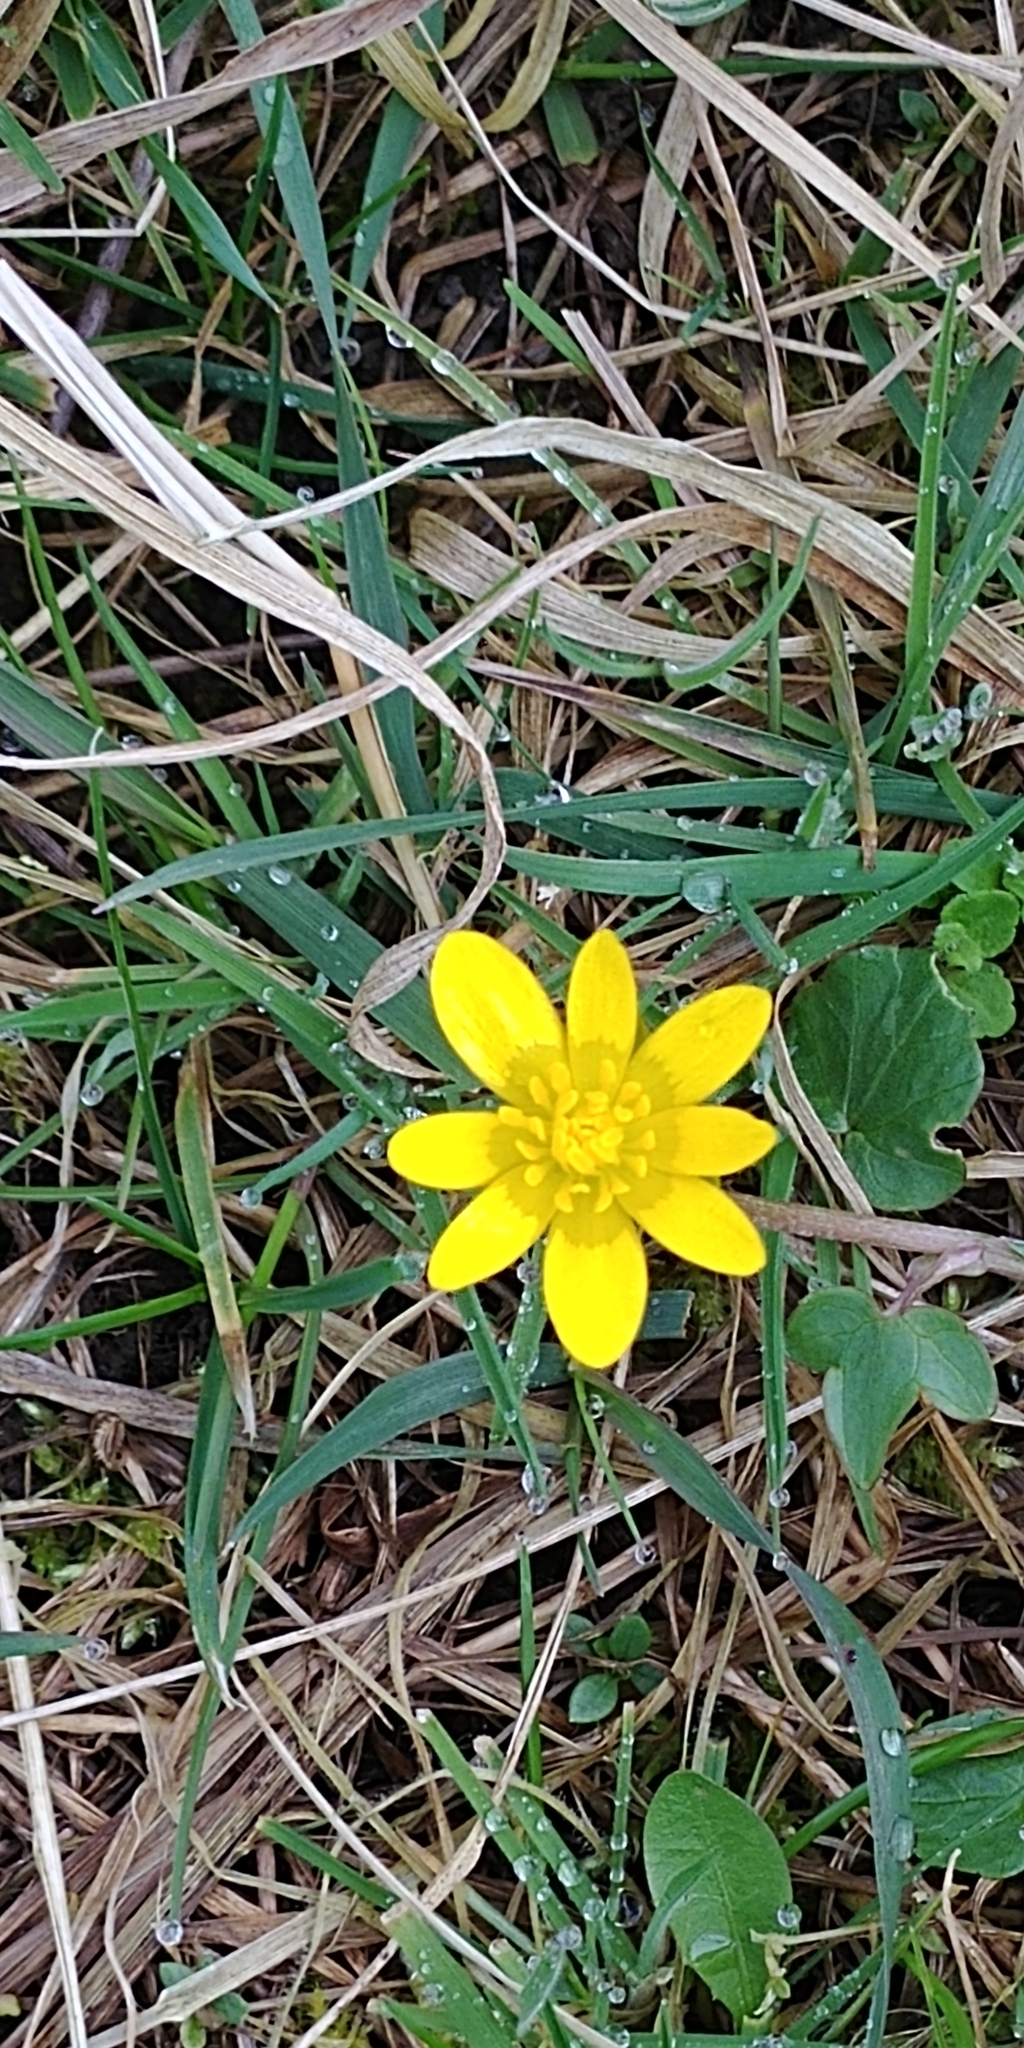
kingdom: Plantae
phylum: Tracheophyta
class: Magnoliopsida
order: Ranunculales
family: Ranunculaceae
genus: Ficaria
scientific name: Ficaria verna
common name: Lesser celandine
